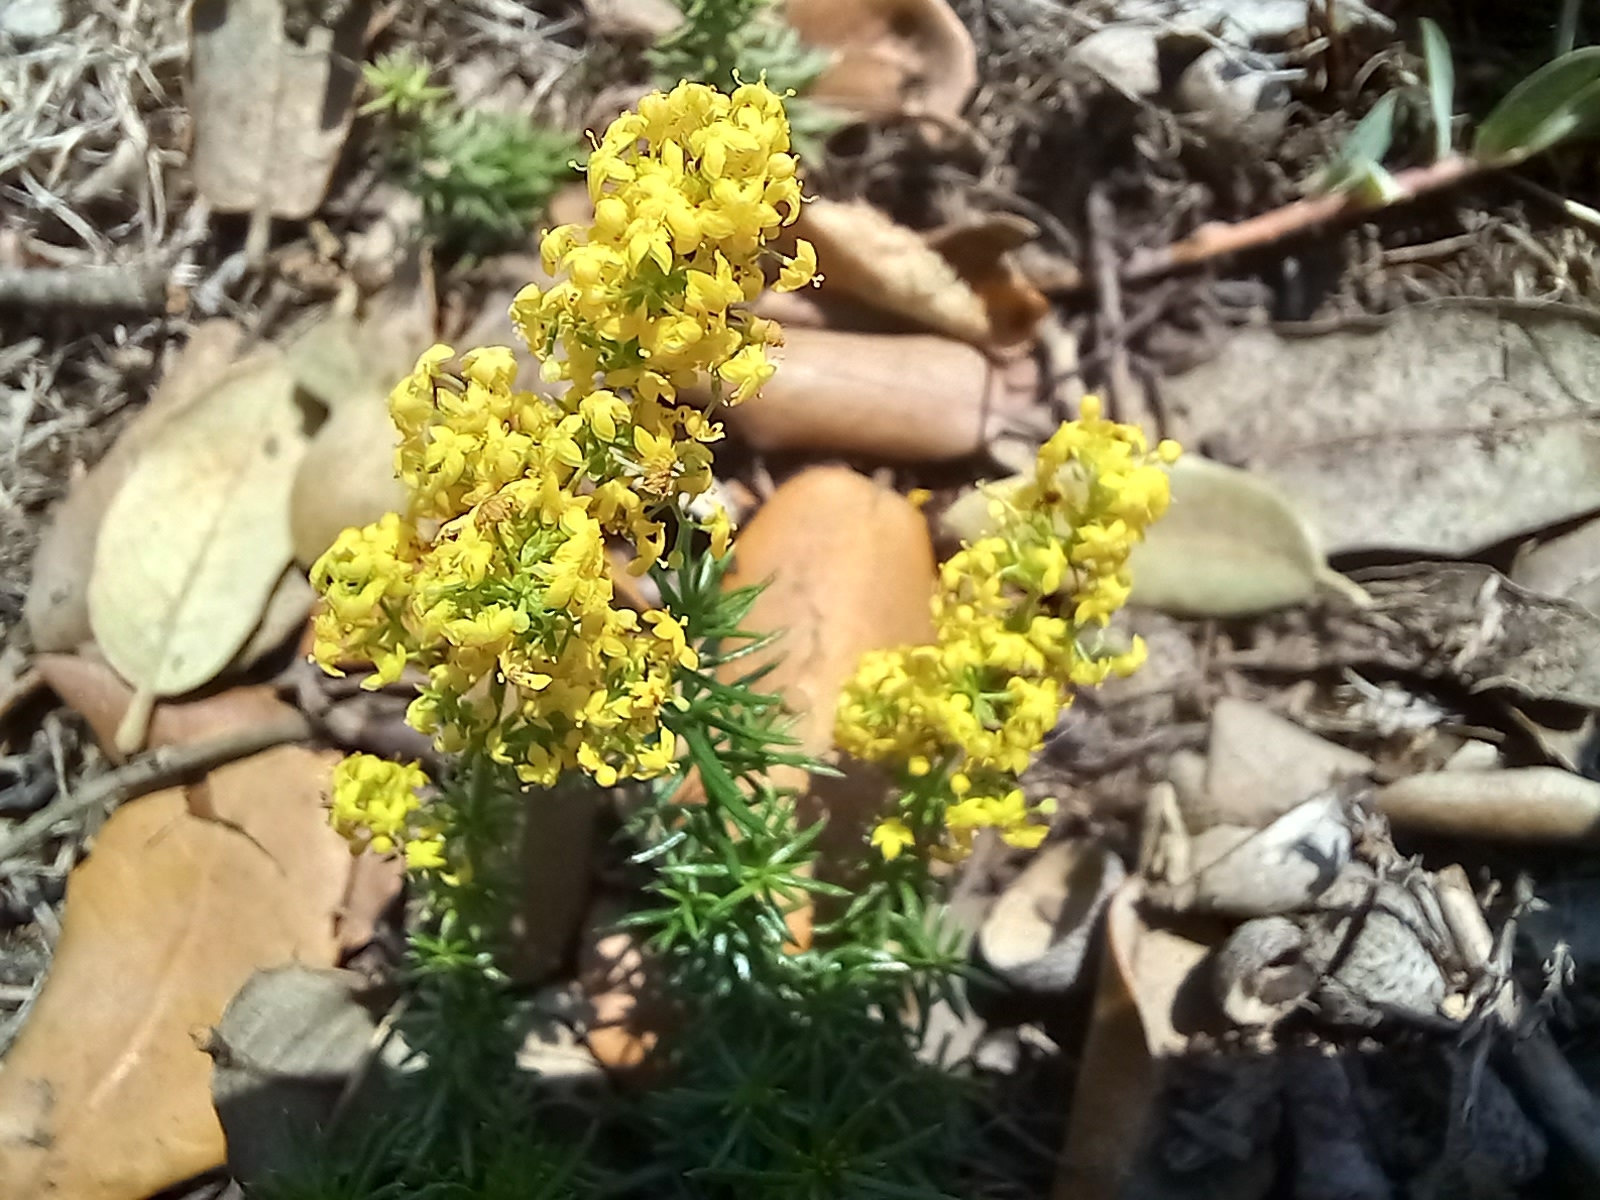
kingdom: Plantae
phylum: Tracheophyta
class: Magnoliopsida
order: Gentianales
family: Rubiaceae
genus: Galium
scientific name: Galium verum
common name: Lady's bedstraw
